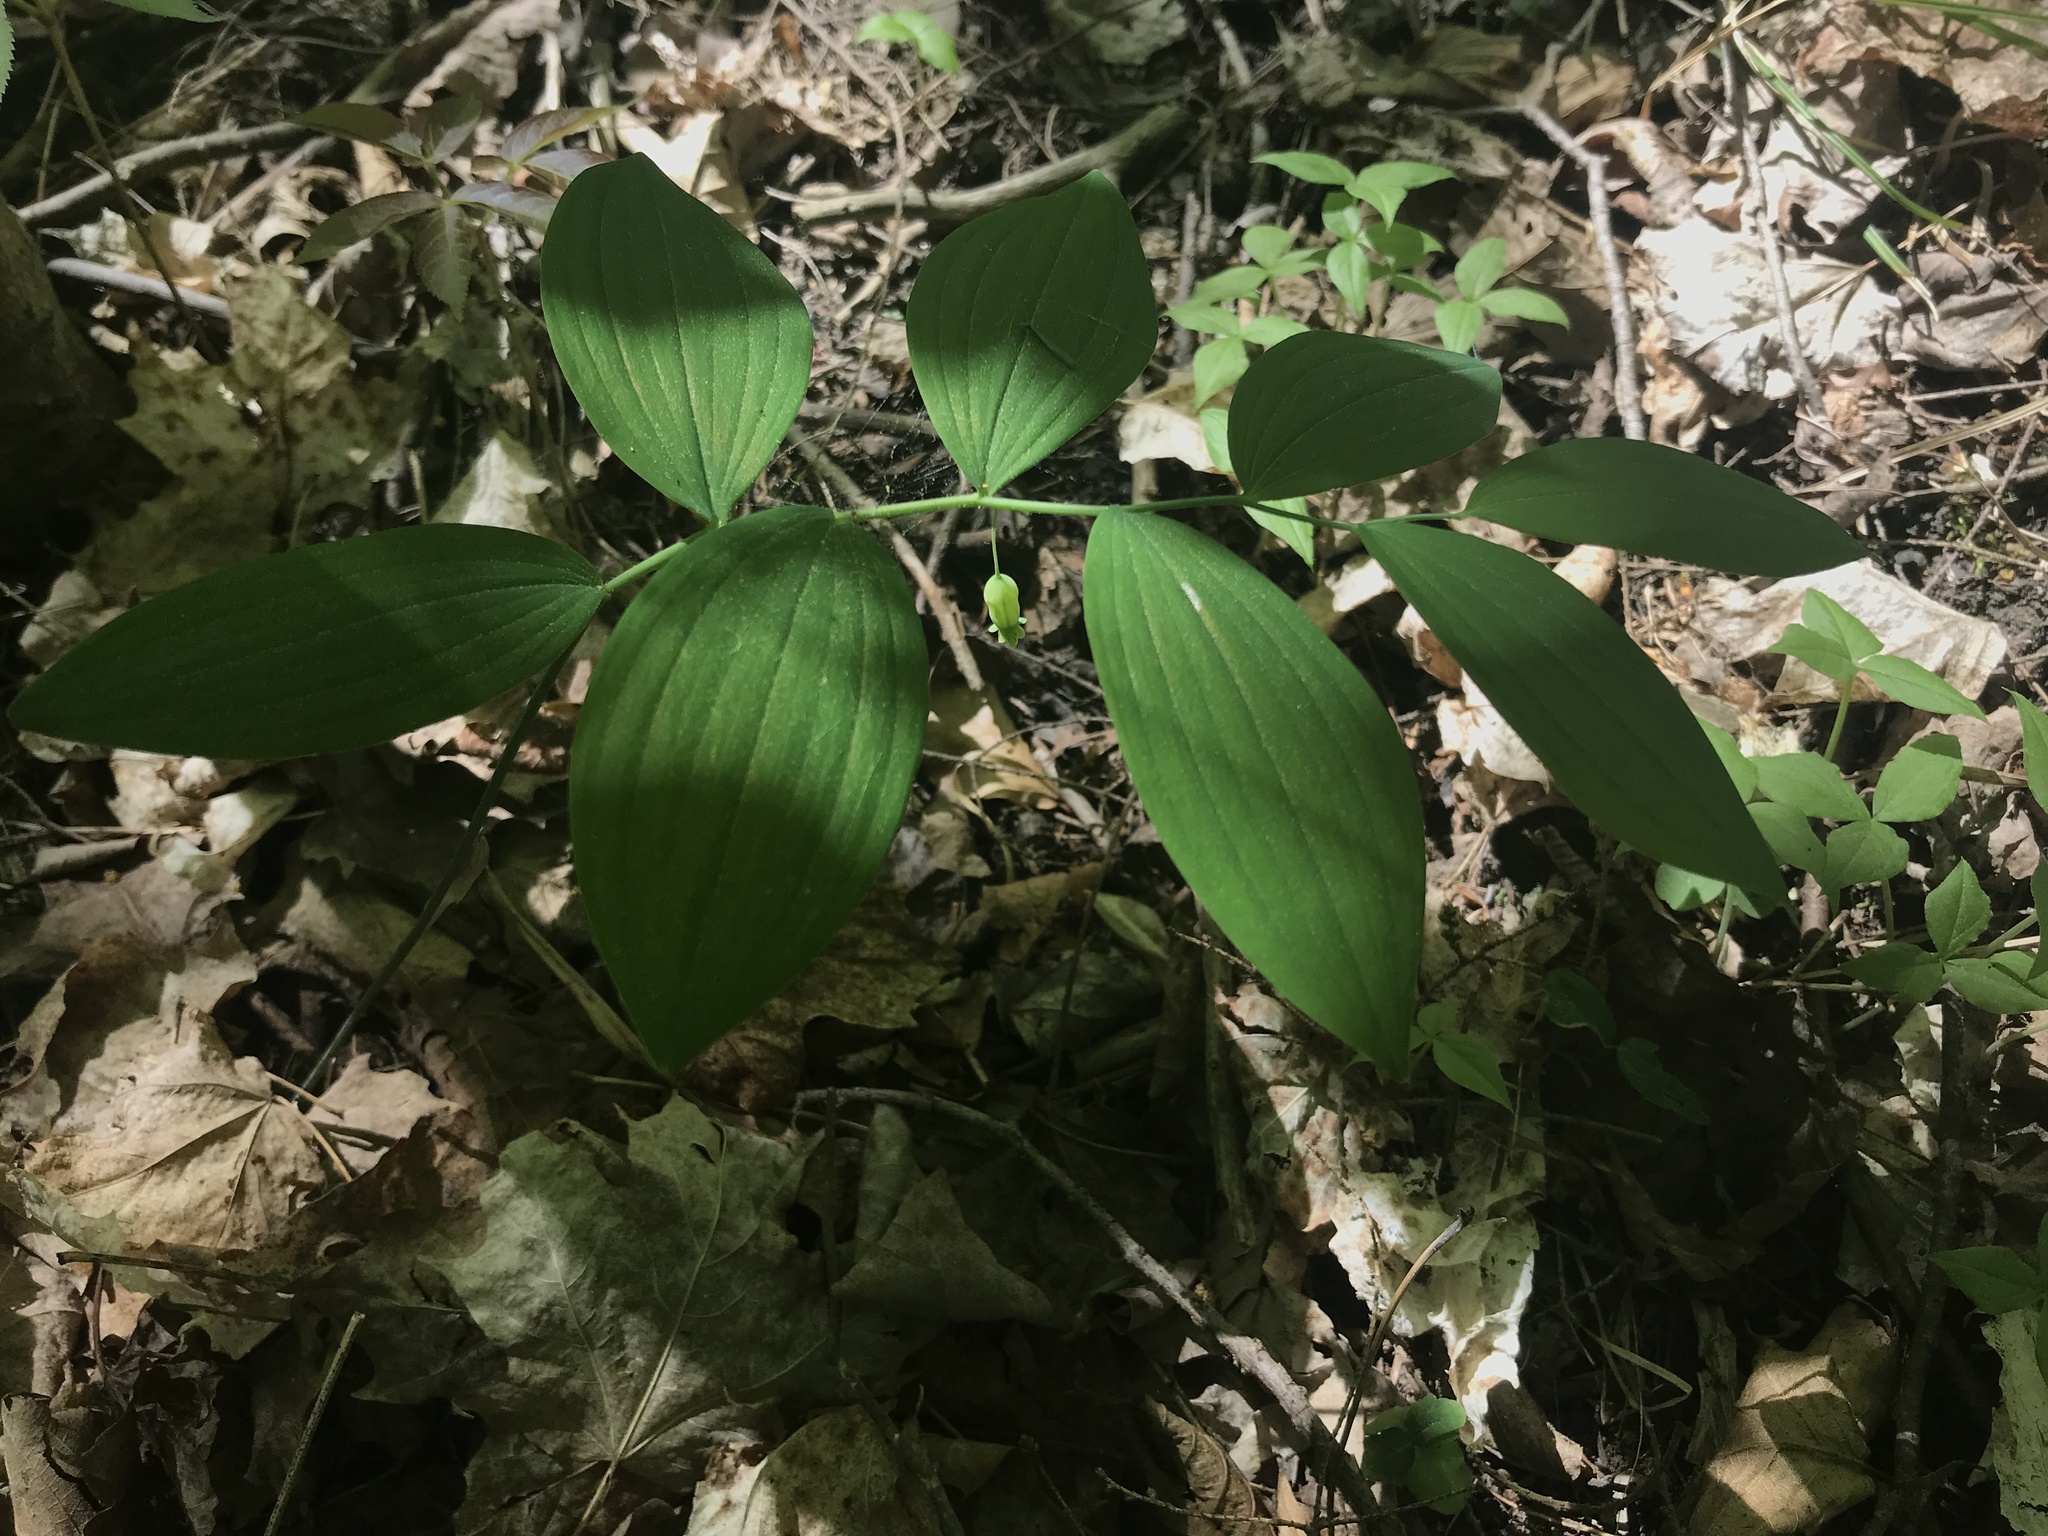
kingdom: Plantae
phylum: Tracheophyta
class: Liliopsida
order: Asparagales
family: Asparagaceae
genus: Polygonatum
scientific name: Polygonatum pubescens
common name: Downy solomon's seal
